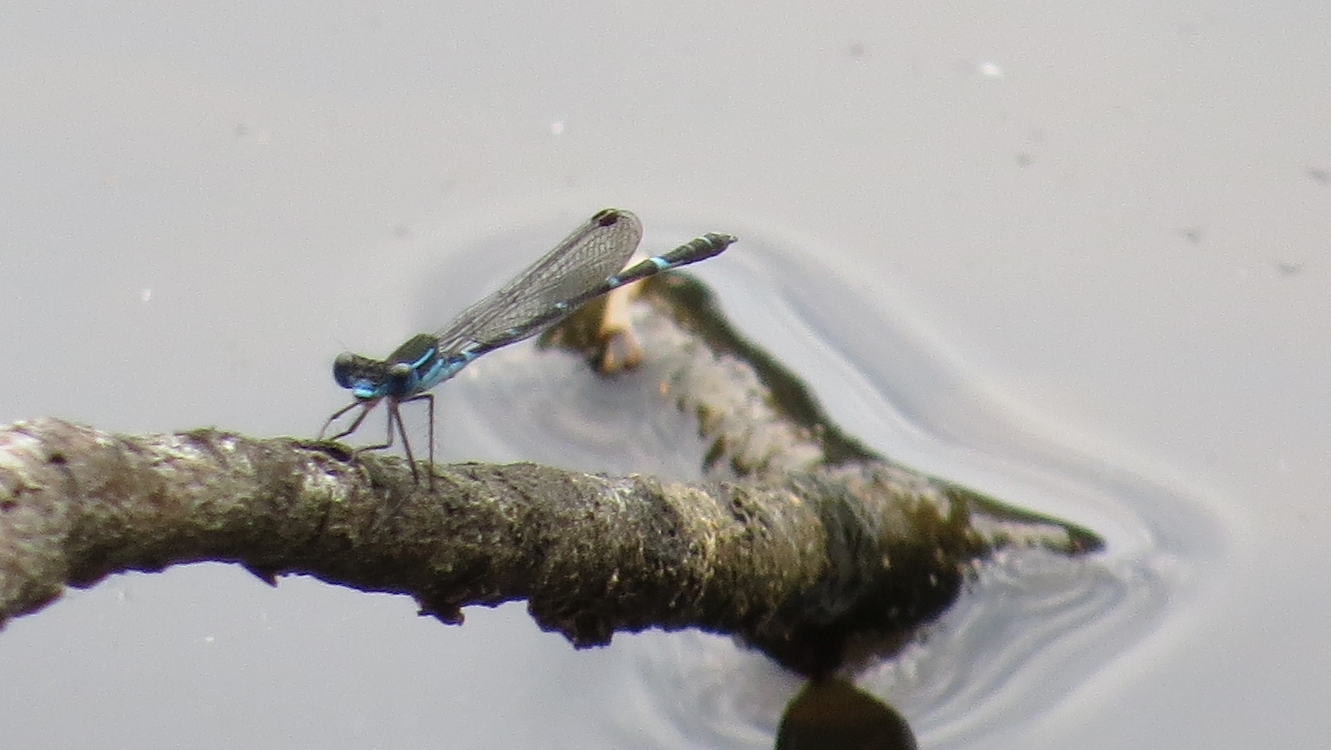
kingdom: Animalia
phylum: Arthropoda
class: Insecta
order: Odonata
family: Lestidae
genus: Austrolestes
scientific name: Austrolestes minjerriba
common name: Dune ringtail
